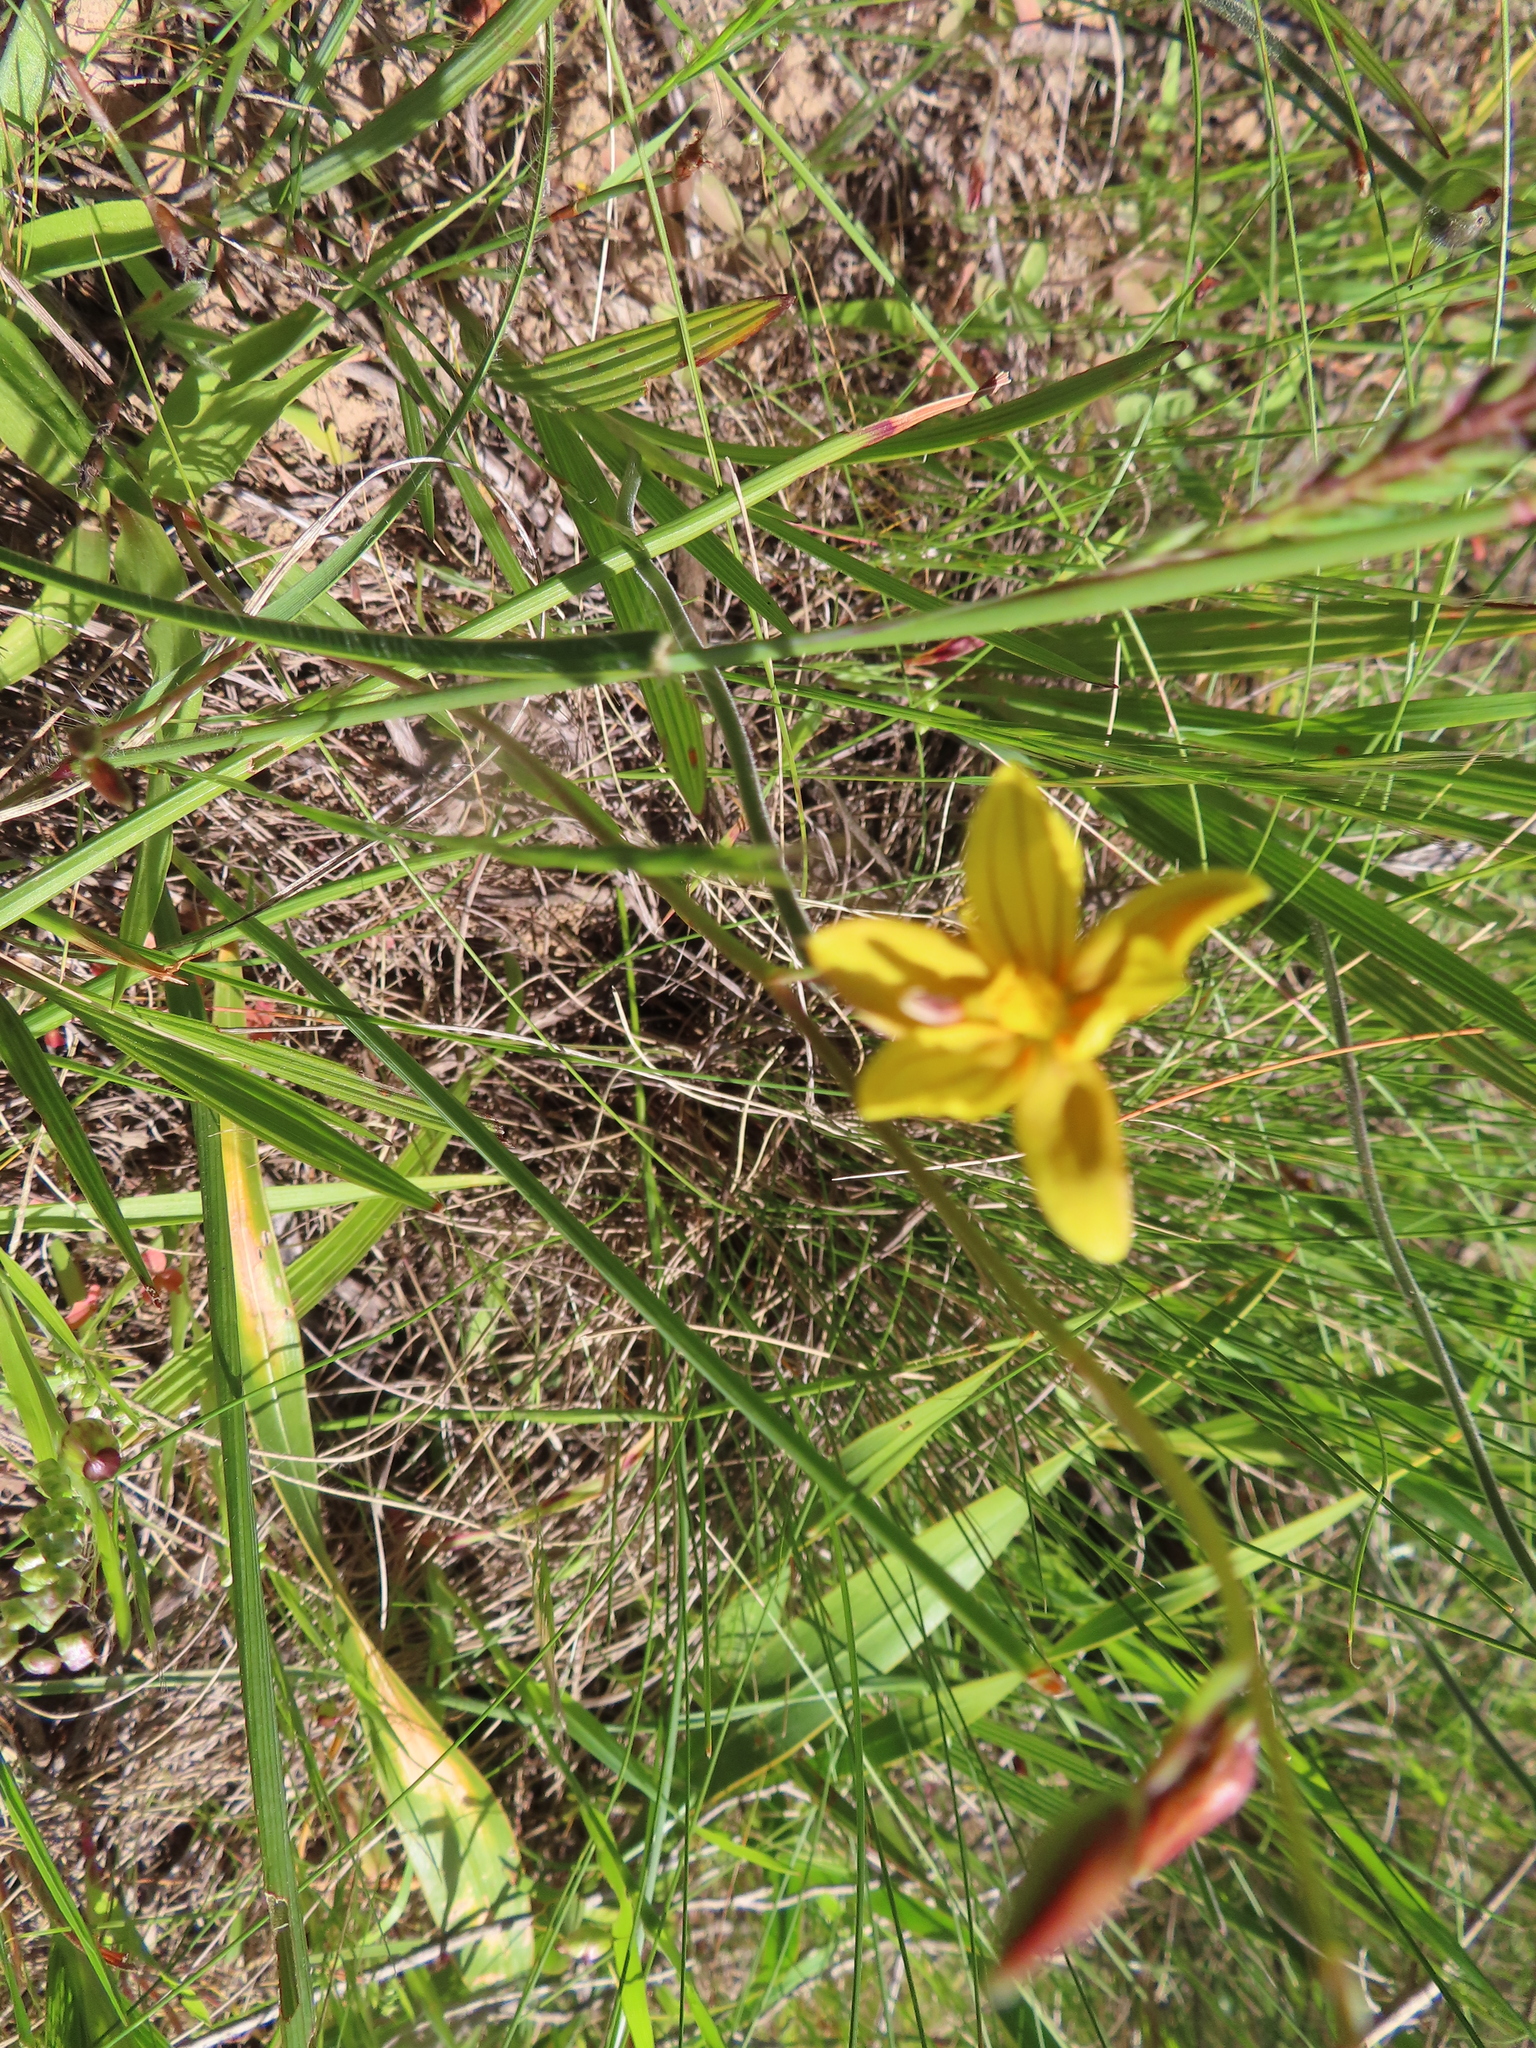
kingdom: Plantae
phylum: Tracheophyta
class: Liliopsida
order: Asparagales
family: Tecophilaeaceae
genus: Cyanella
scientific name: Cyanella lutea
